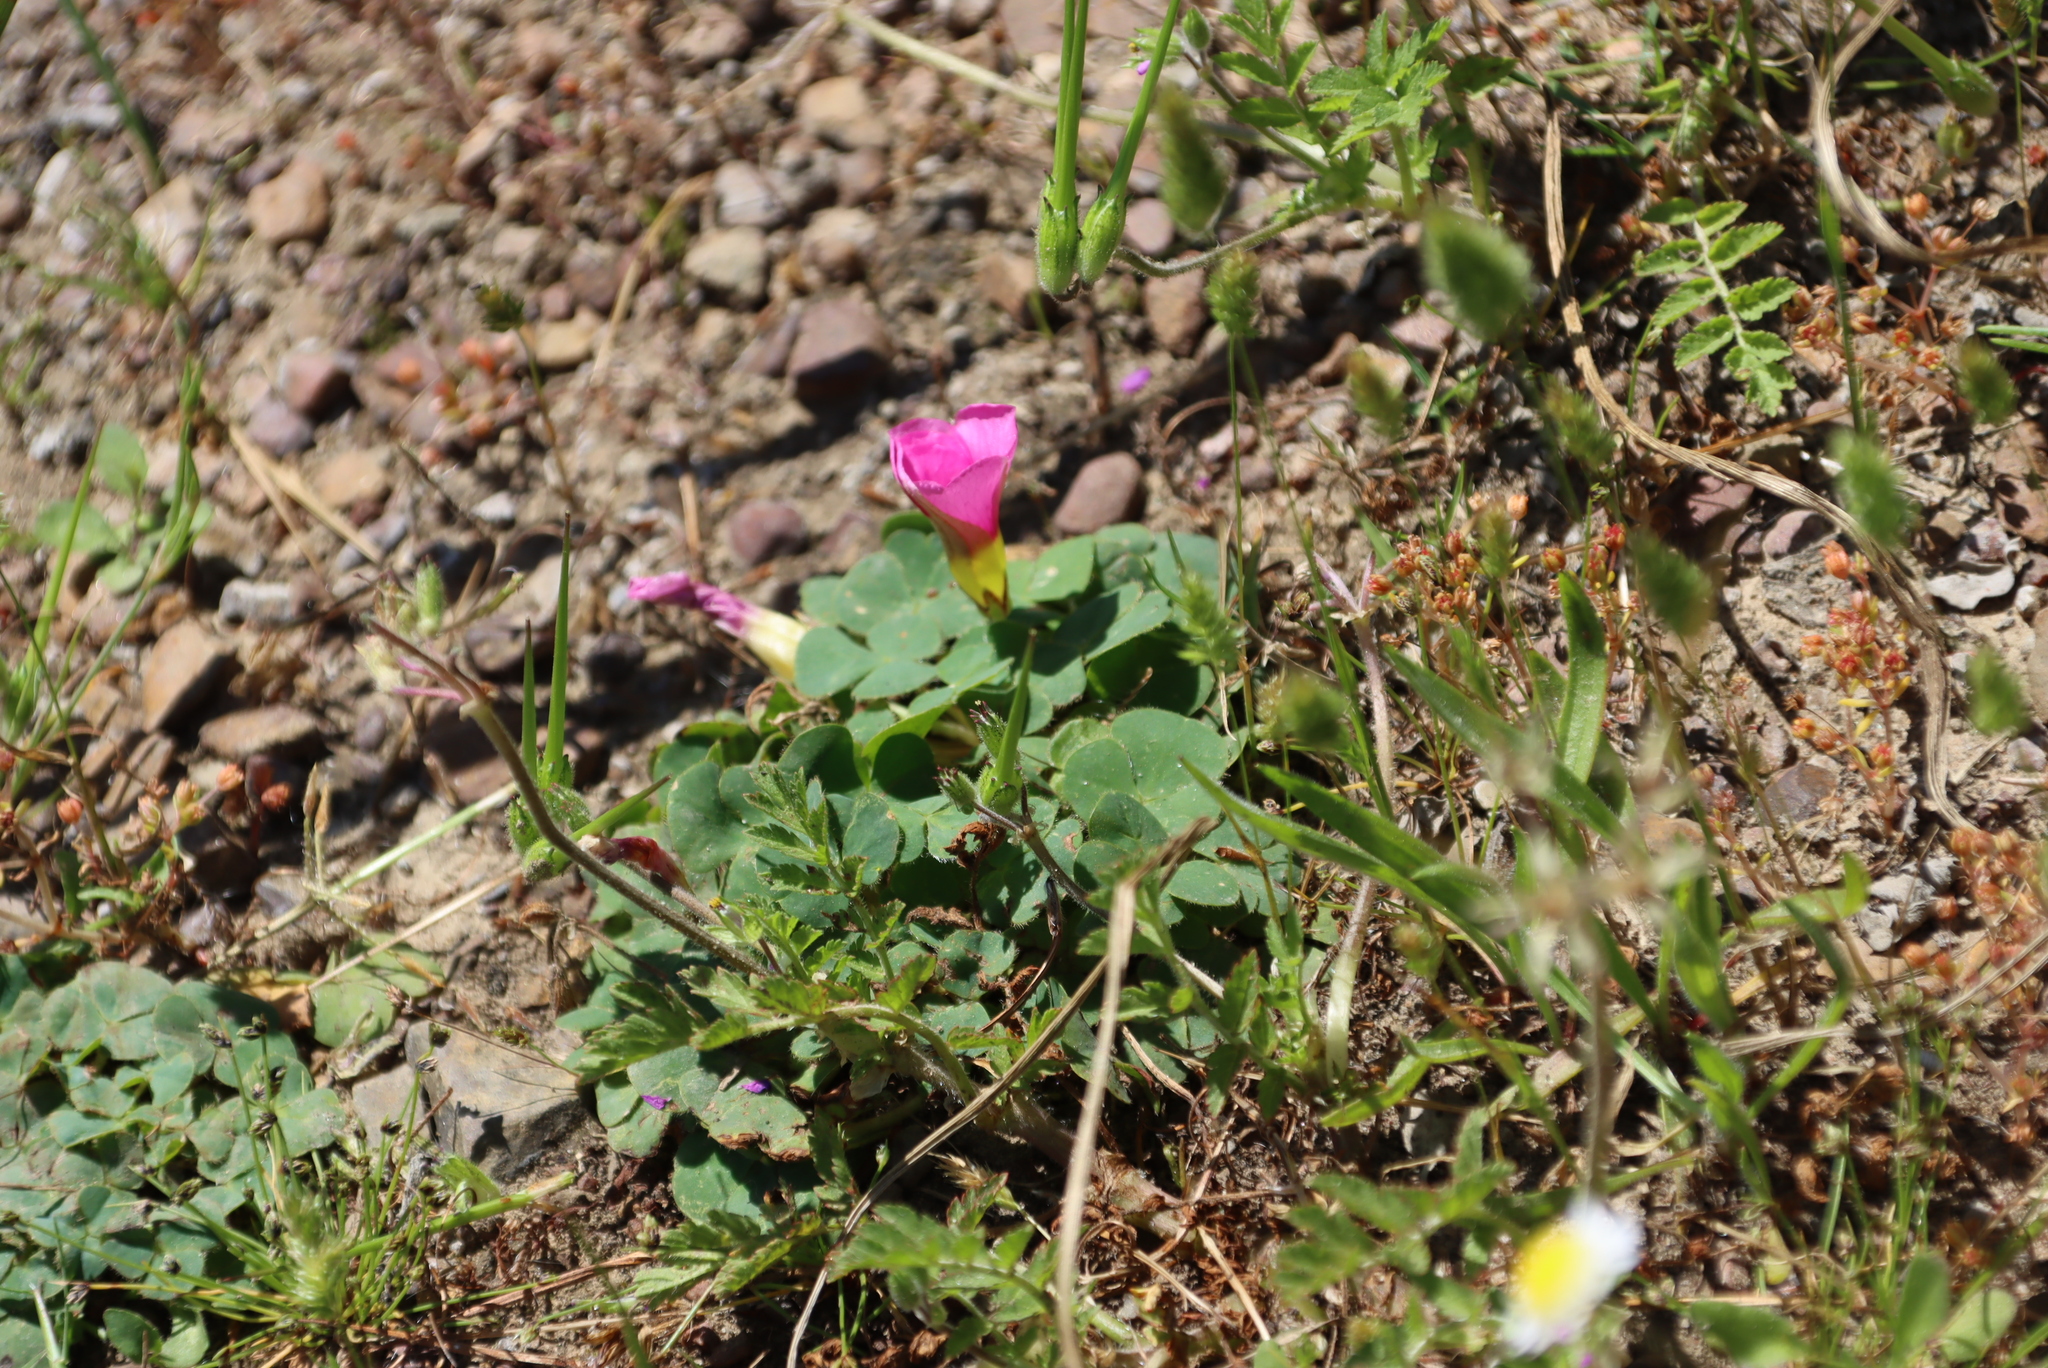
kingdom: Plantae
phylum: Tracheophyta
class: Magnoliopsida
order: Oxalidales
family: Oxalidaceae
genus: Oxalis
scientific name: Oxalis purpurea
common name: Purple woodsorrel
